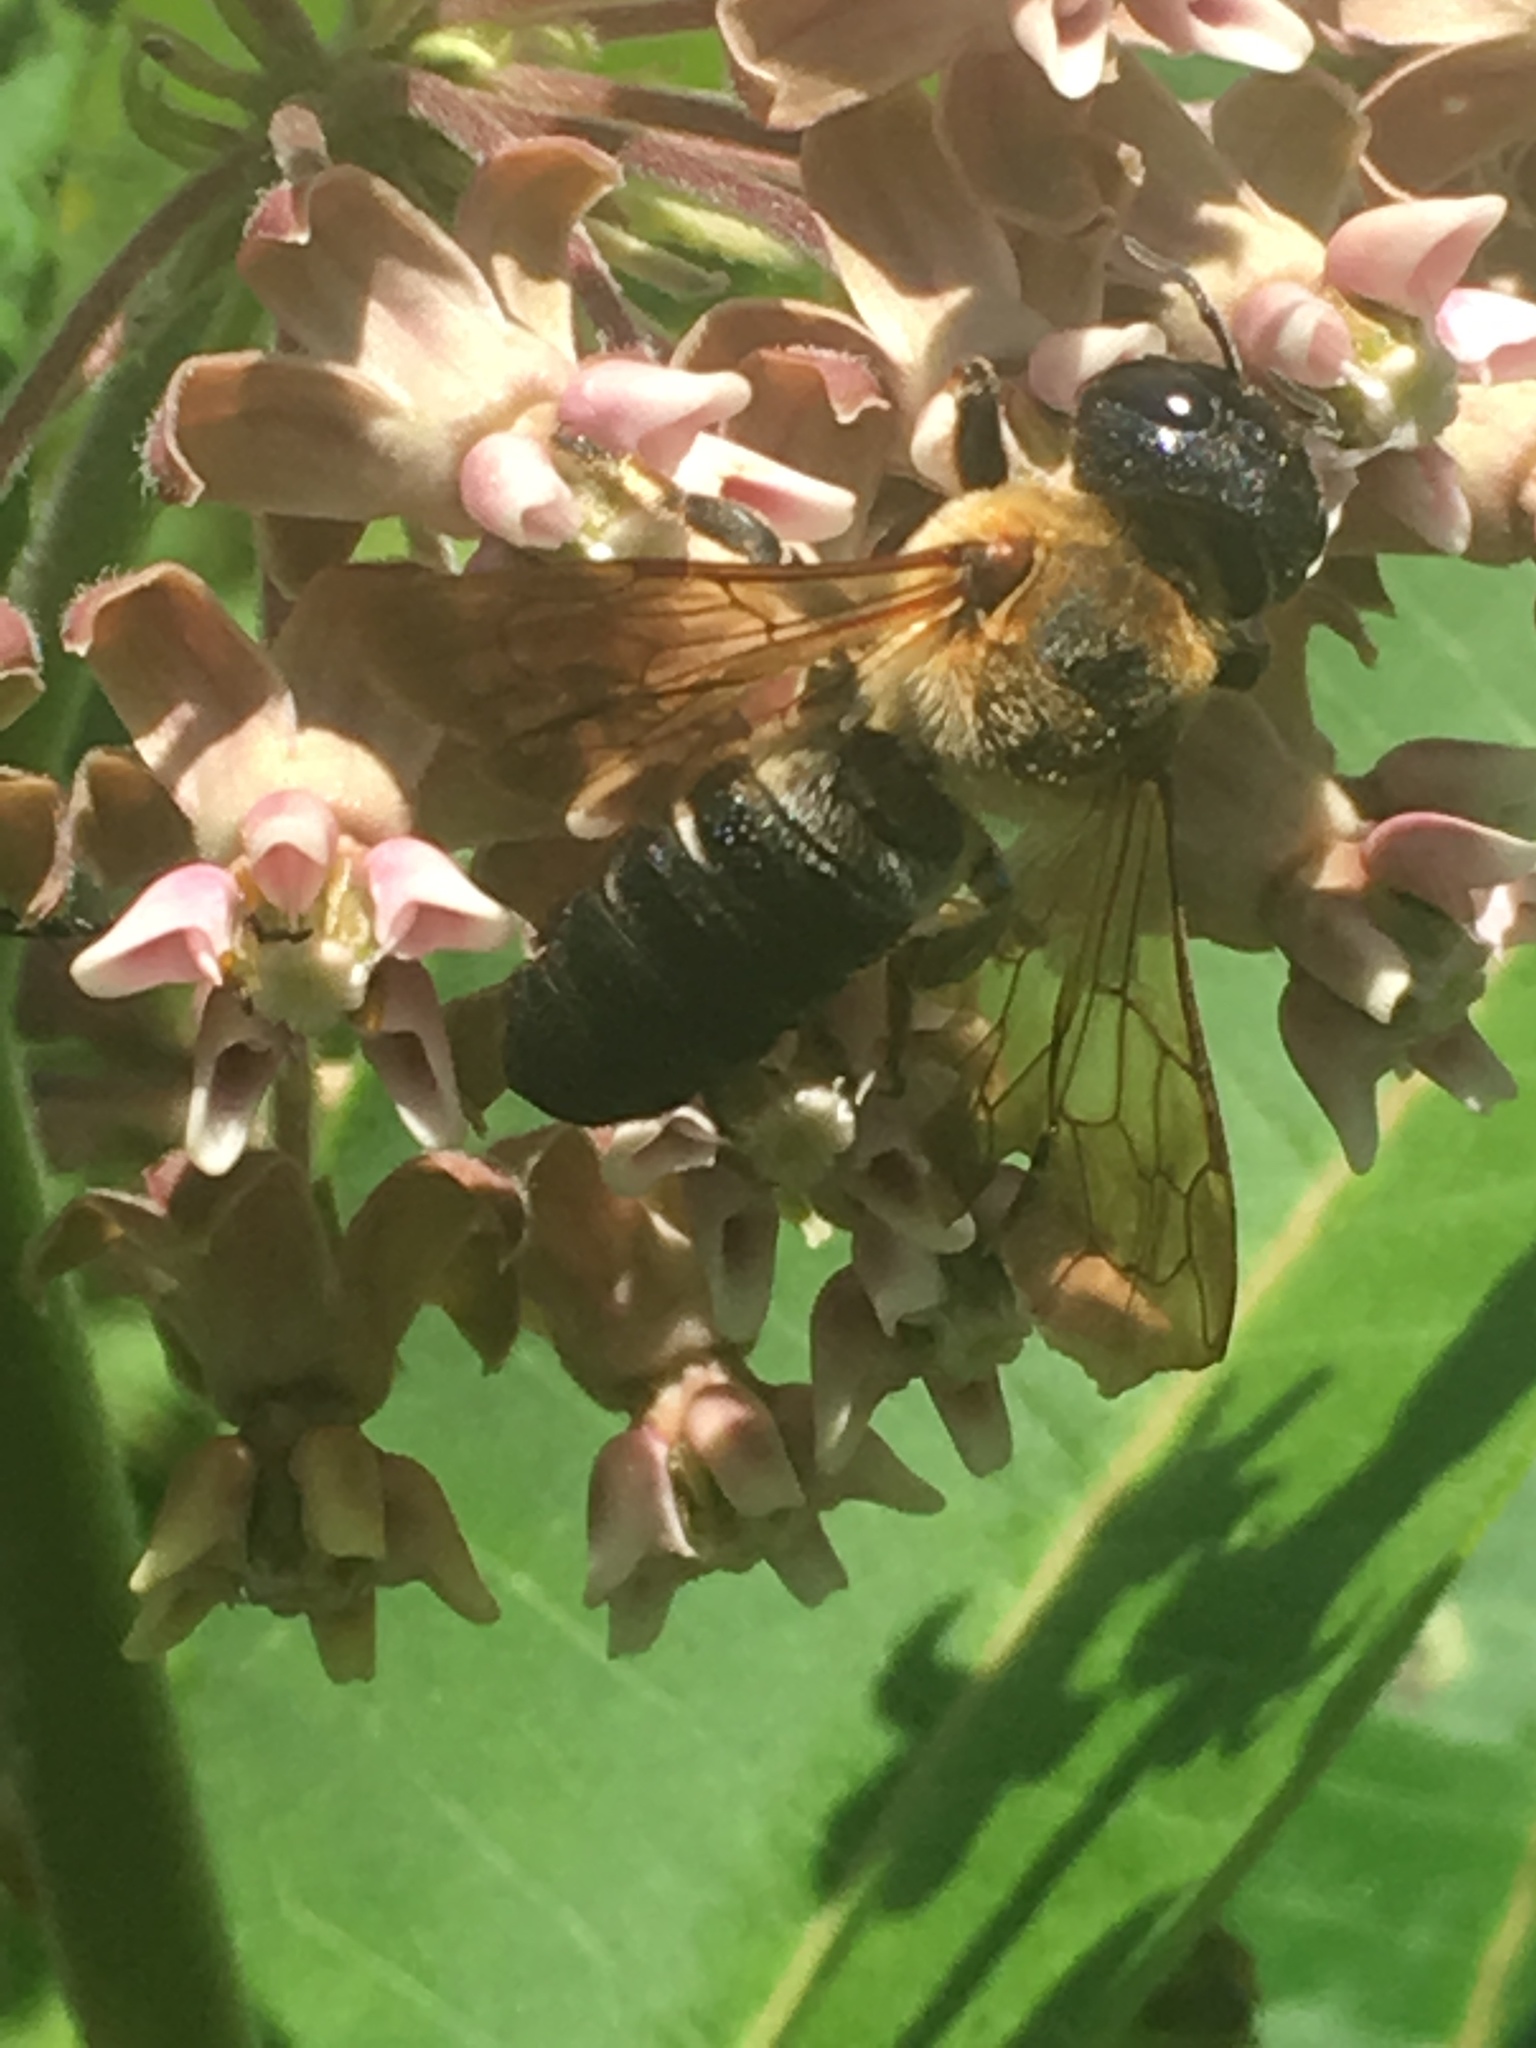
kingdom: Animalia
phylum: Arthropoda
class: Insecta
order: Hymenoptera
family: Megachilidae
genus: Megachile
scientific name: Megachile sculpturalis
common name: Sculptured resin bee
